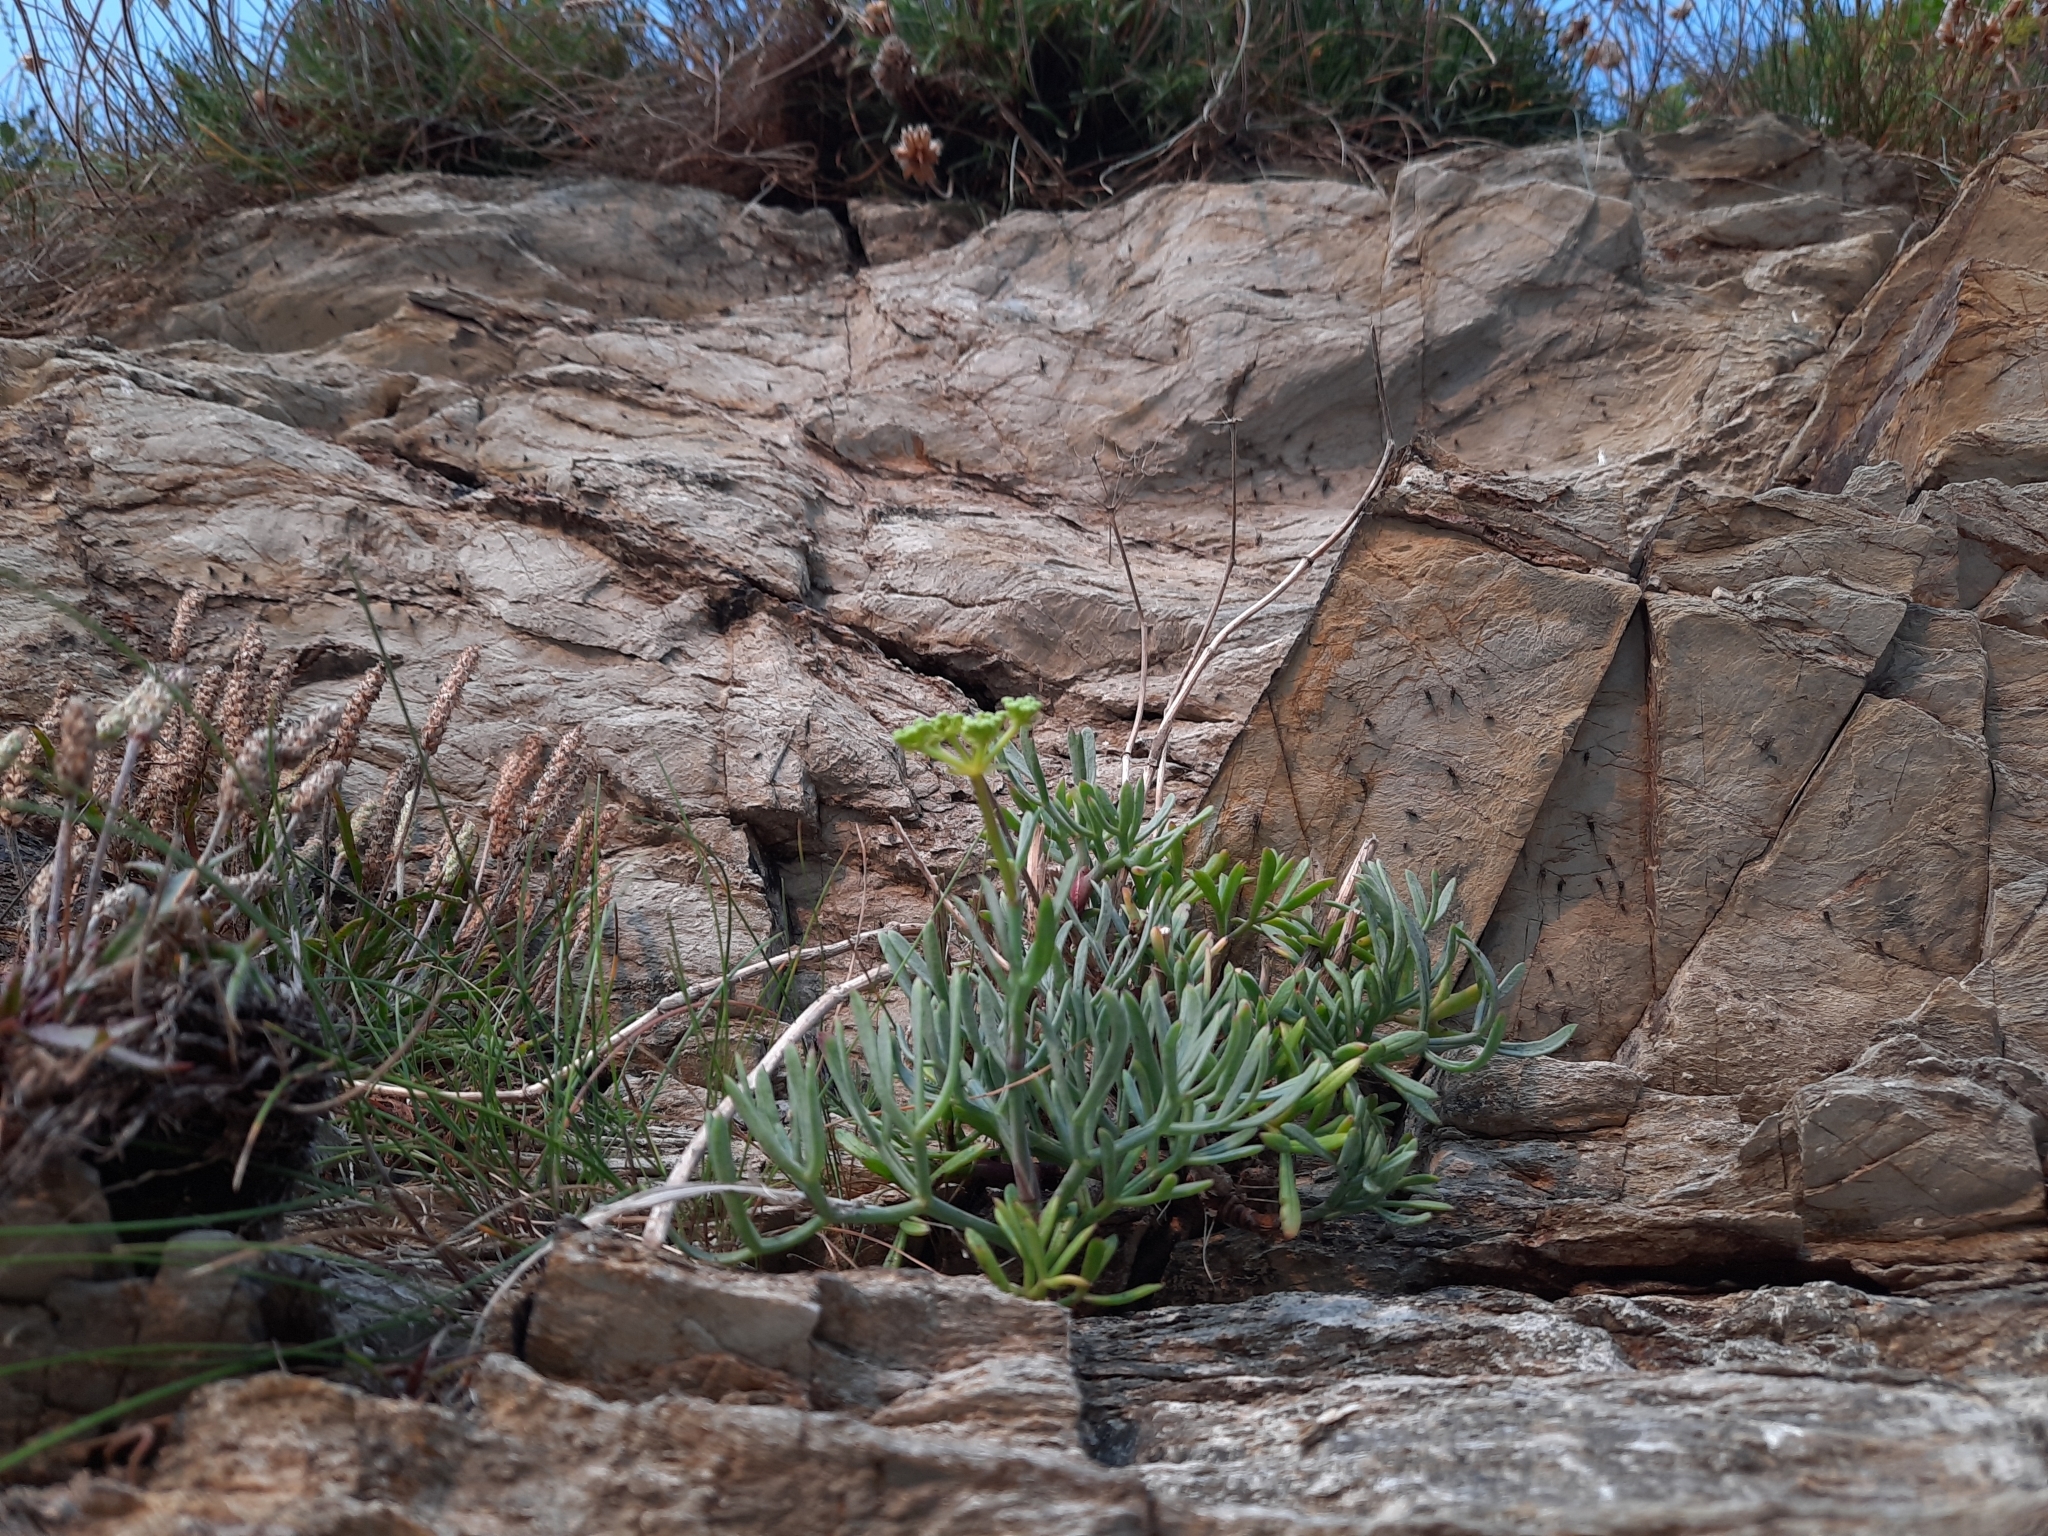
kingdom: Plantae
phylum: Tracheophyta
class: Magnoliopsida
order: Apiales
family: Apiaceae
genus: Crithmum
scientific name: Crithmum maritimum
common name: Rock samphire
